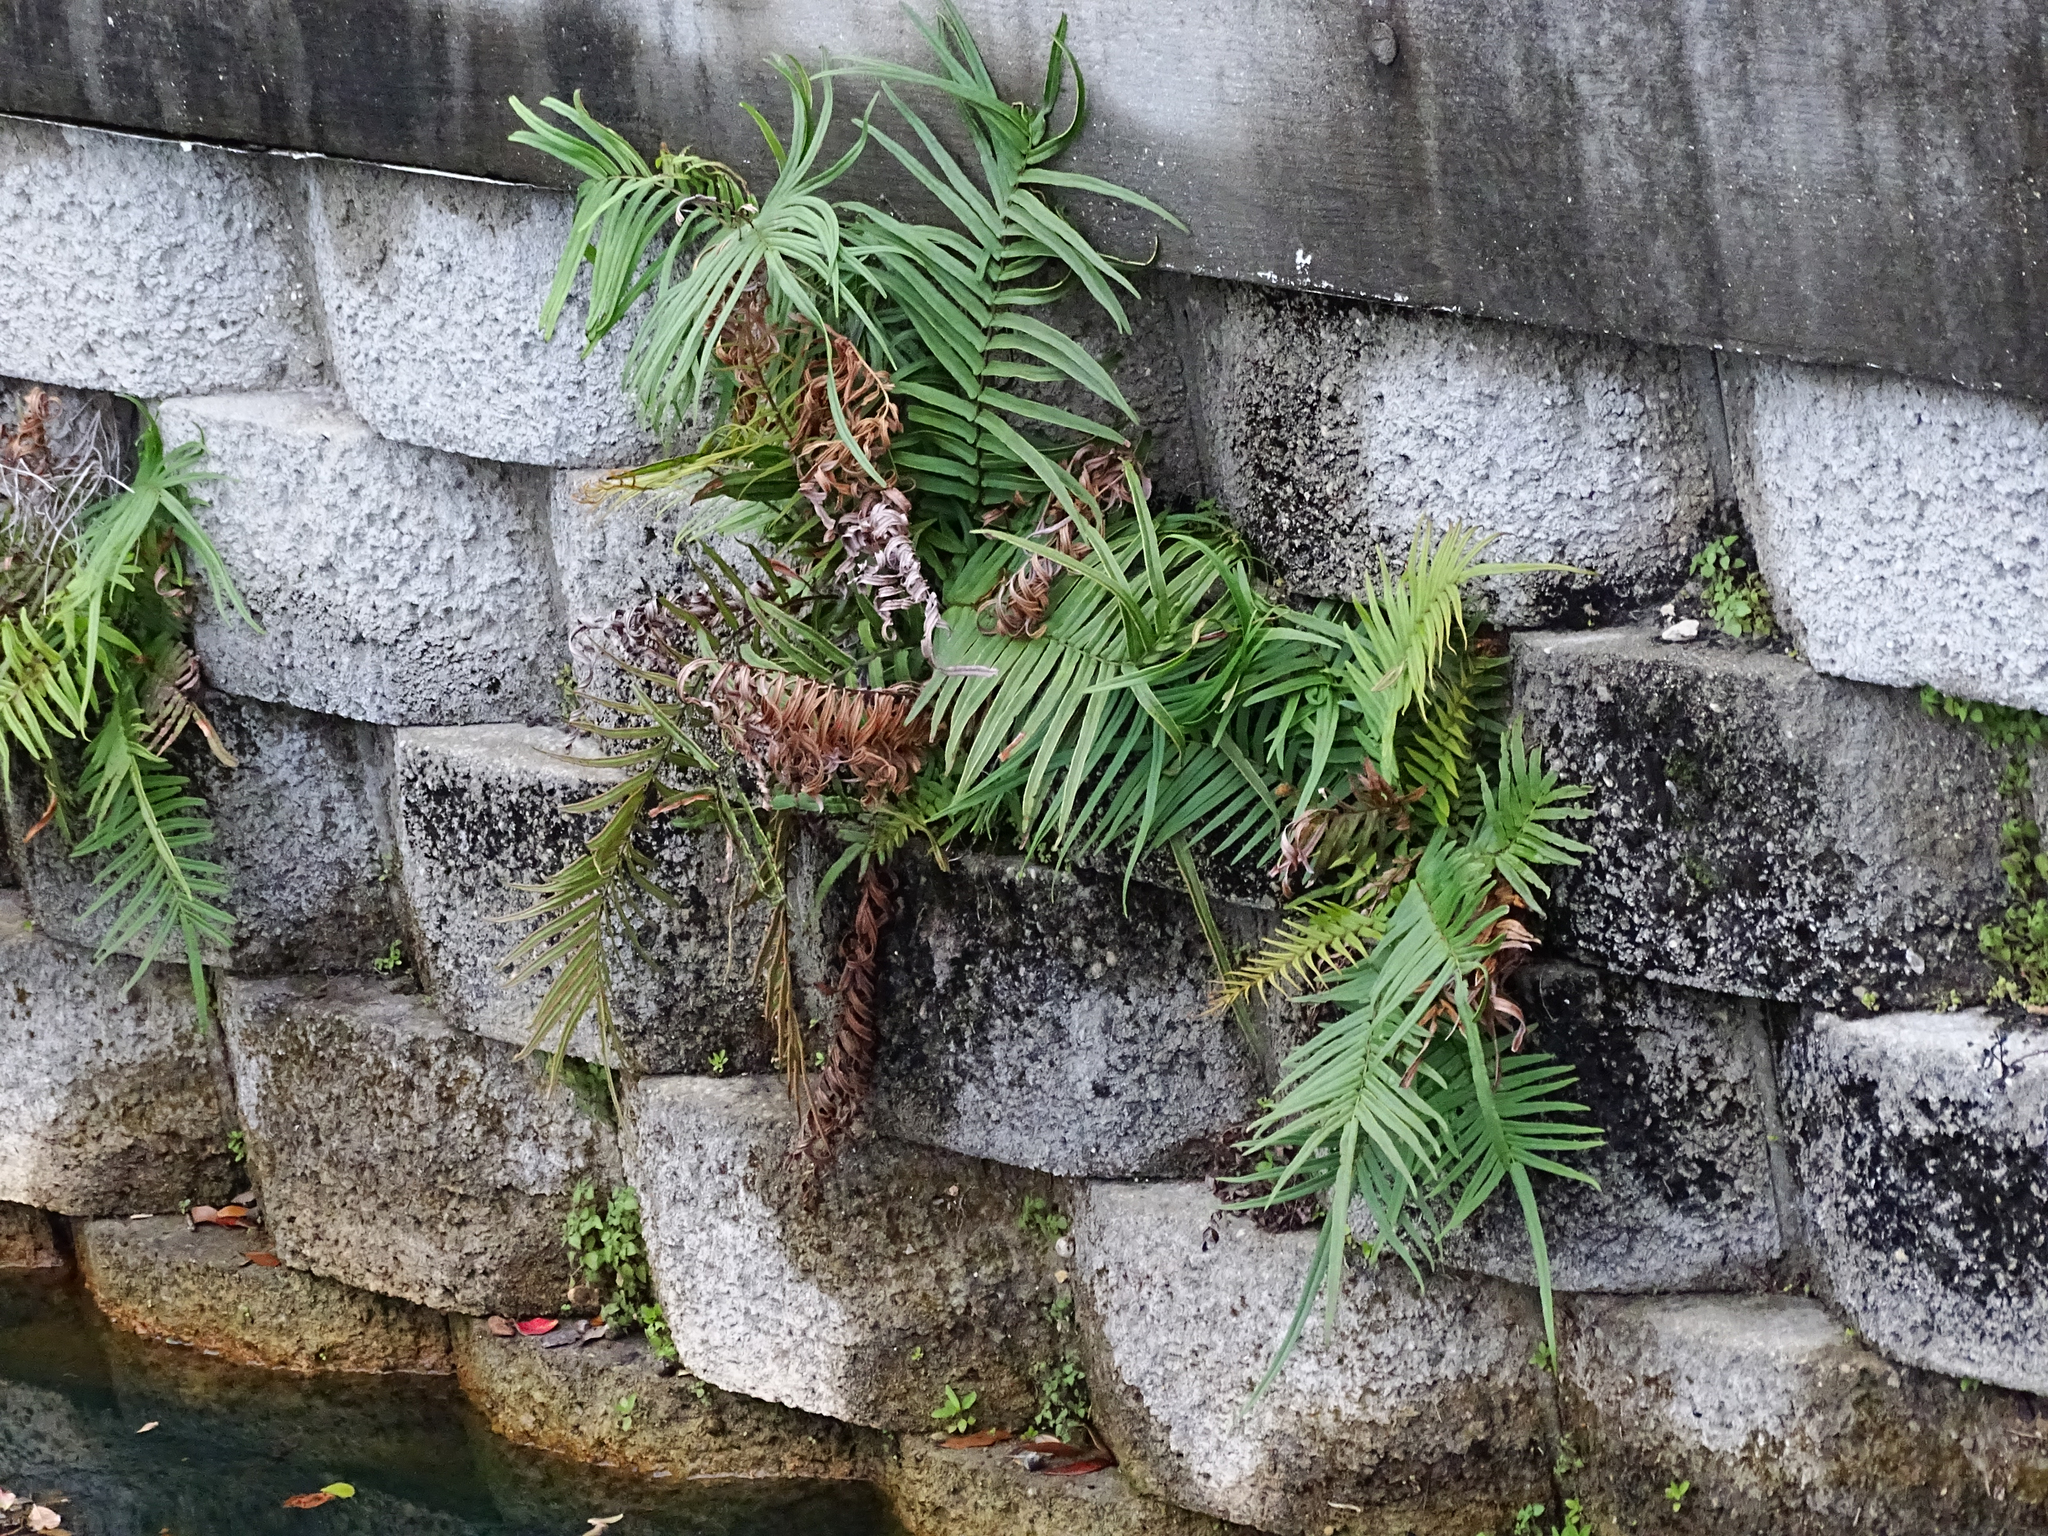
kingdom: Plantae
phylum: Tracheophyta
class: Polypodiopsida
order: Polypodiales
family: Pteridaceae
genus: Pteris
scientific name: Pteris vittata
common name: Ladder brake
